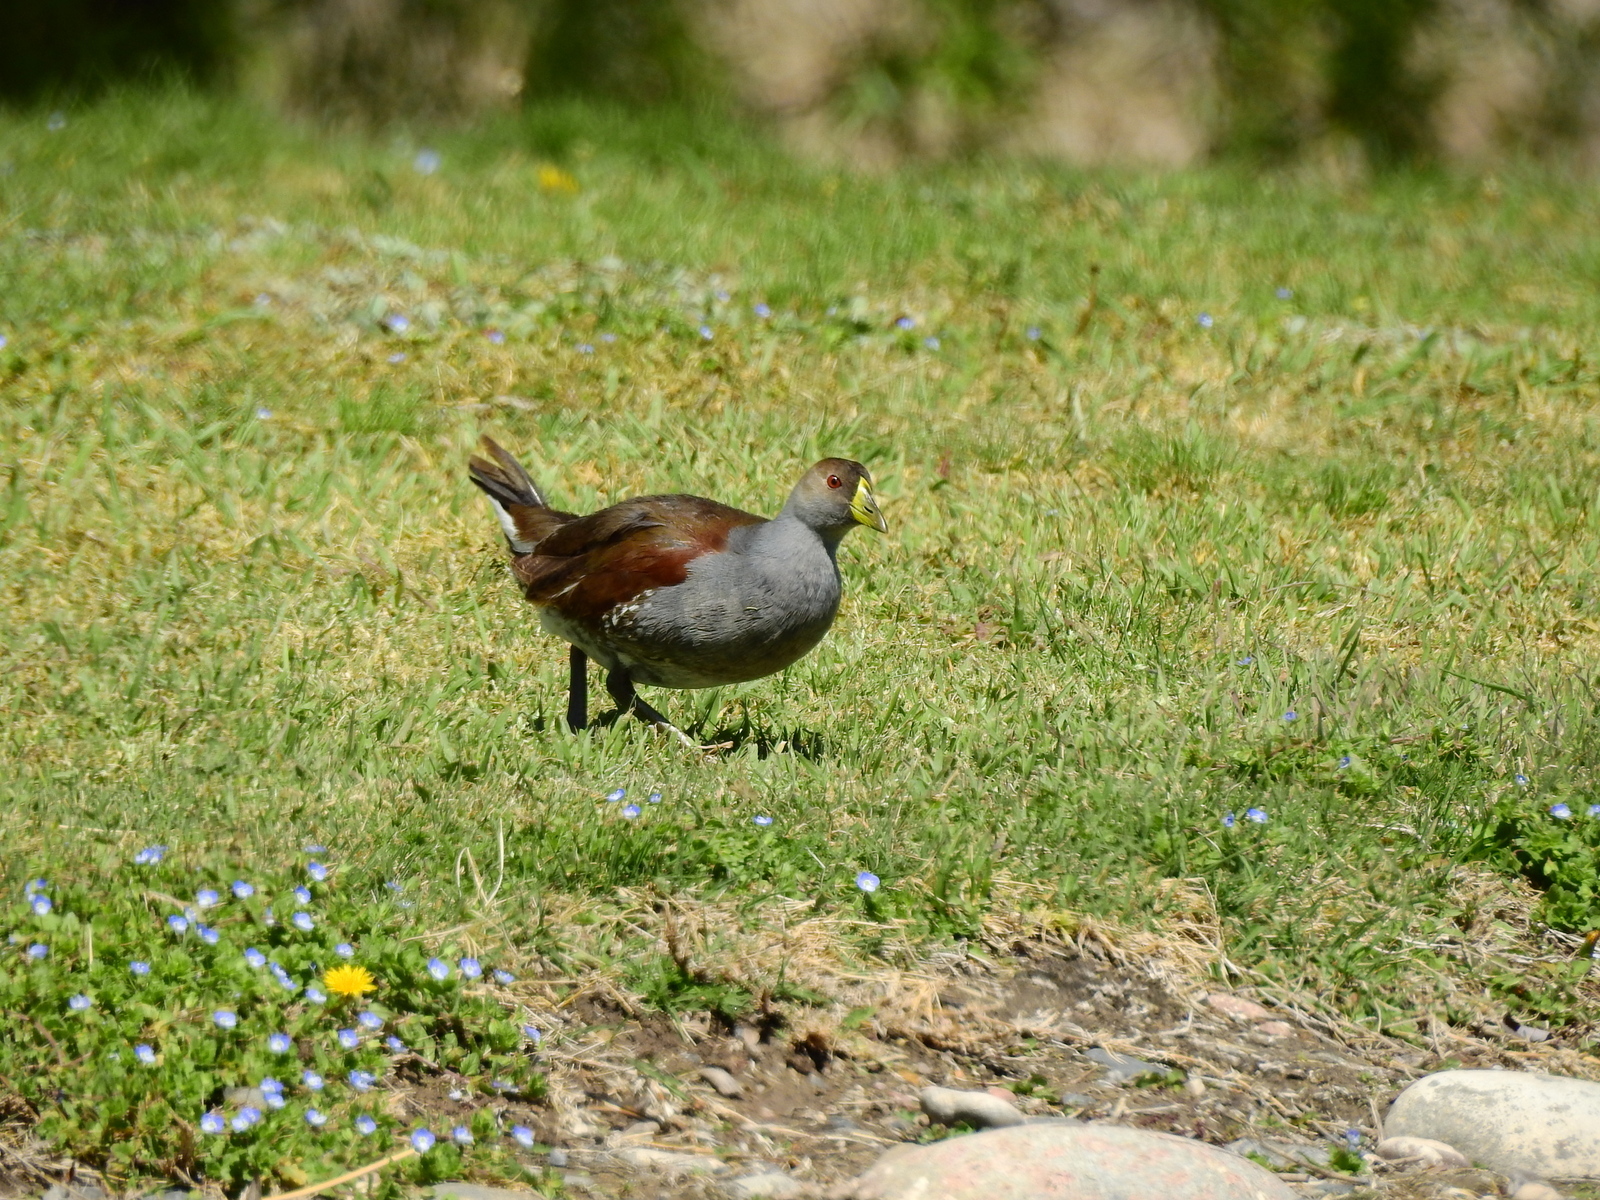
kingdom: Animalia
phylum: Chordata
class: Aves
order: Gruiformes
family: Rallidae
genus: Gallinula
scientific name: Gallinula melanops
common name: Spot-flanked gallinule
